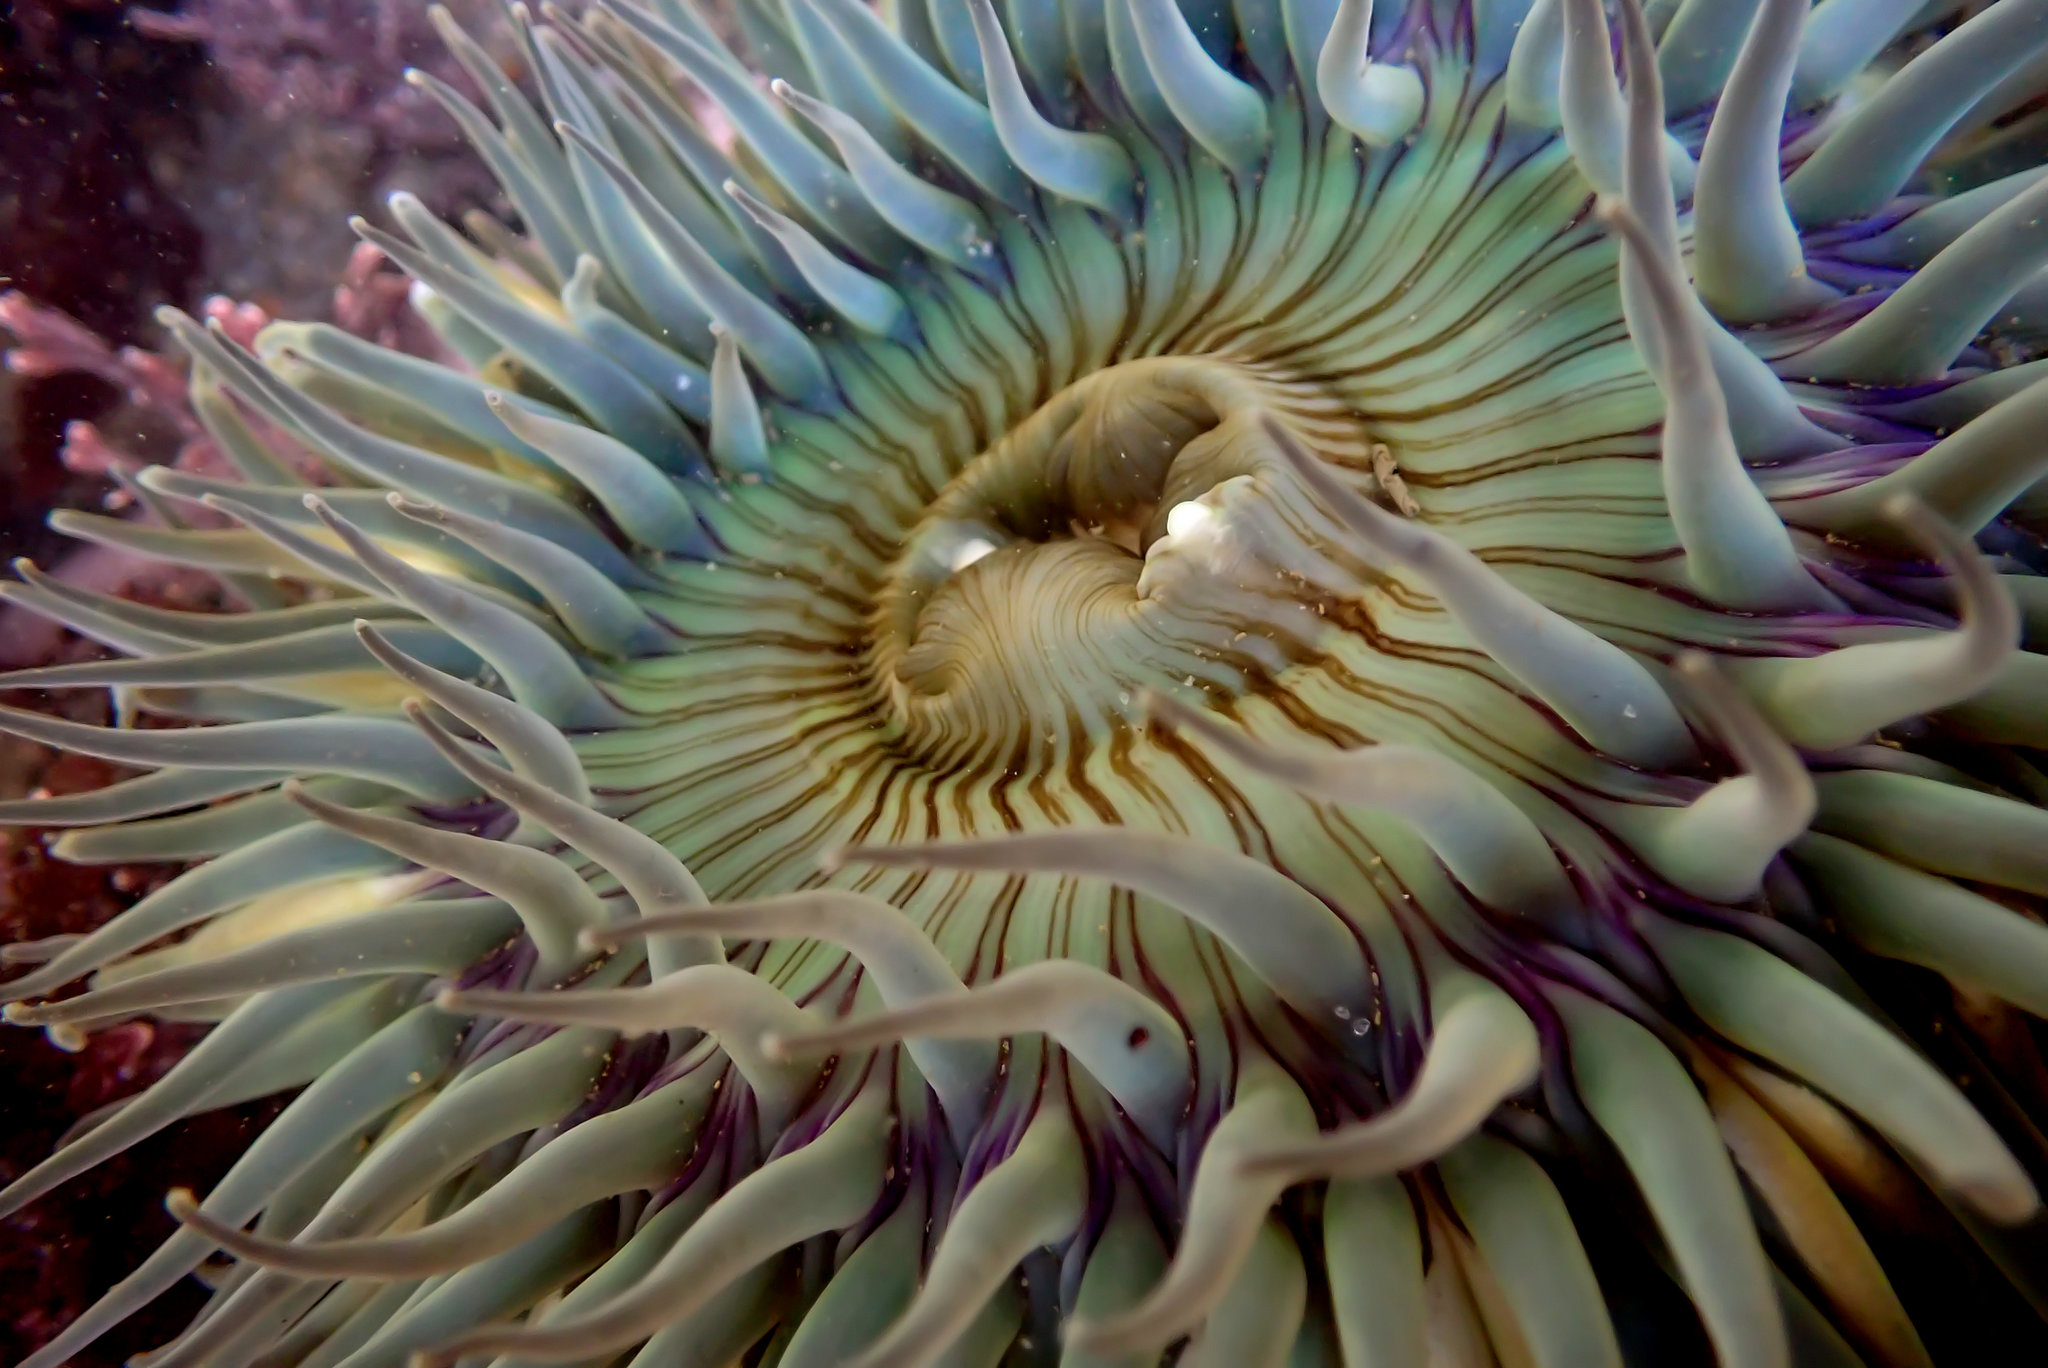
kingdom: Animalia
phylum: Cnidaria
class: Anthozoa
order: Actiniaria
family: Actiniidae
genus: Anthopleura
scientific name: Anthopleura sola
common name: Sun anemone
